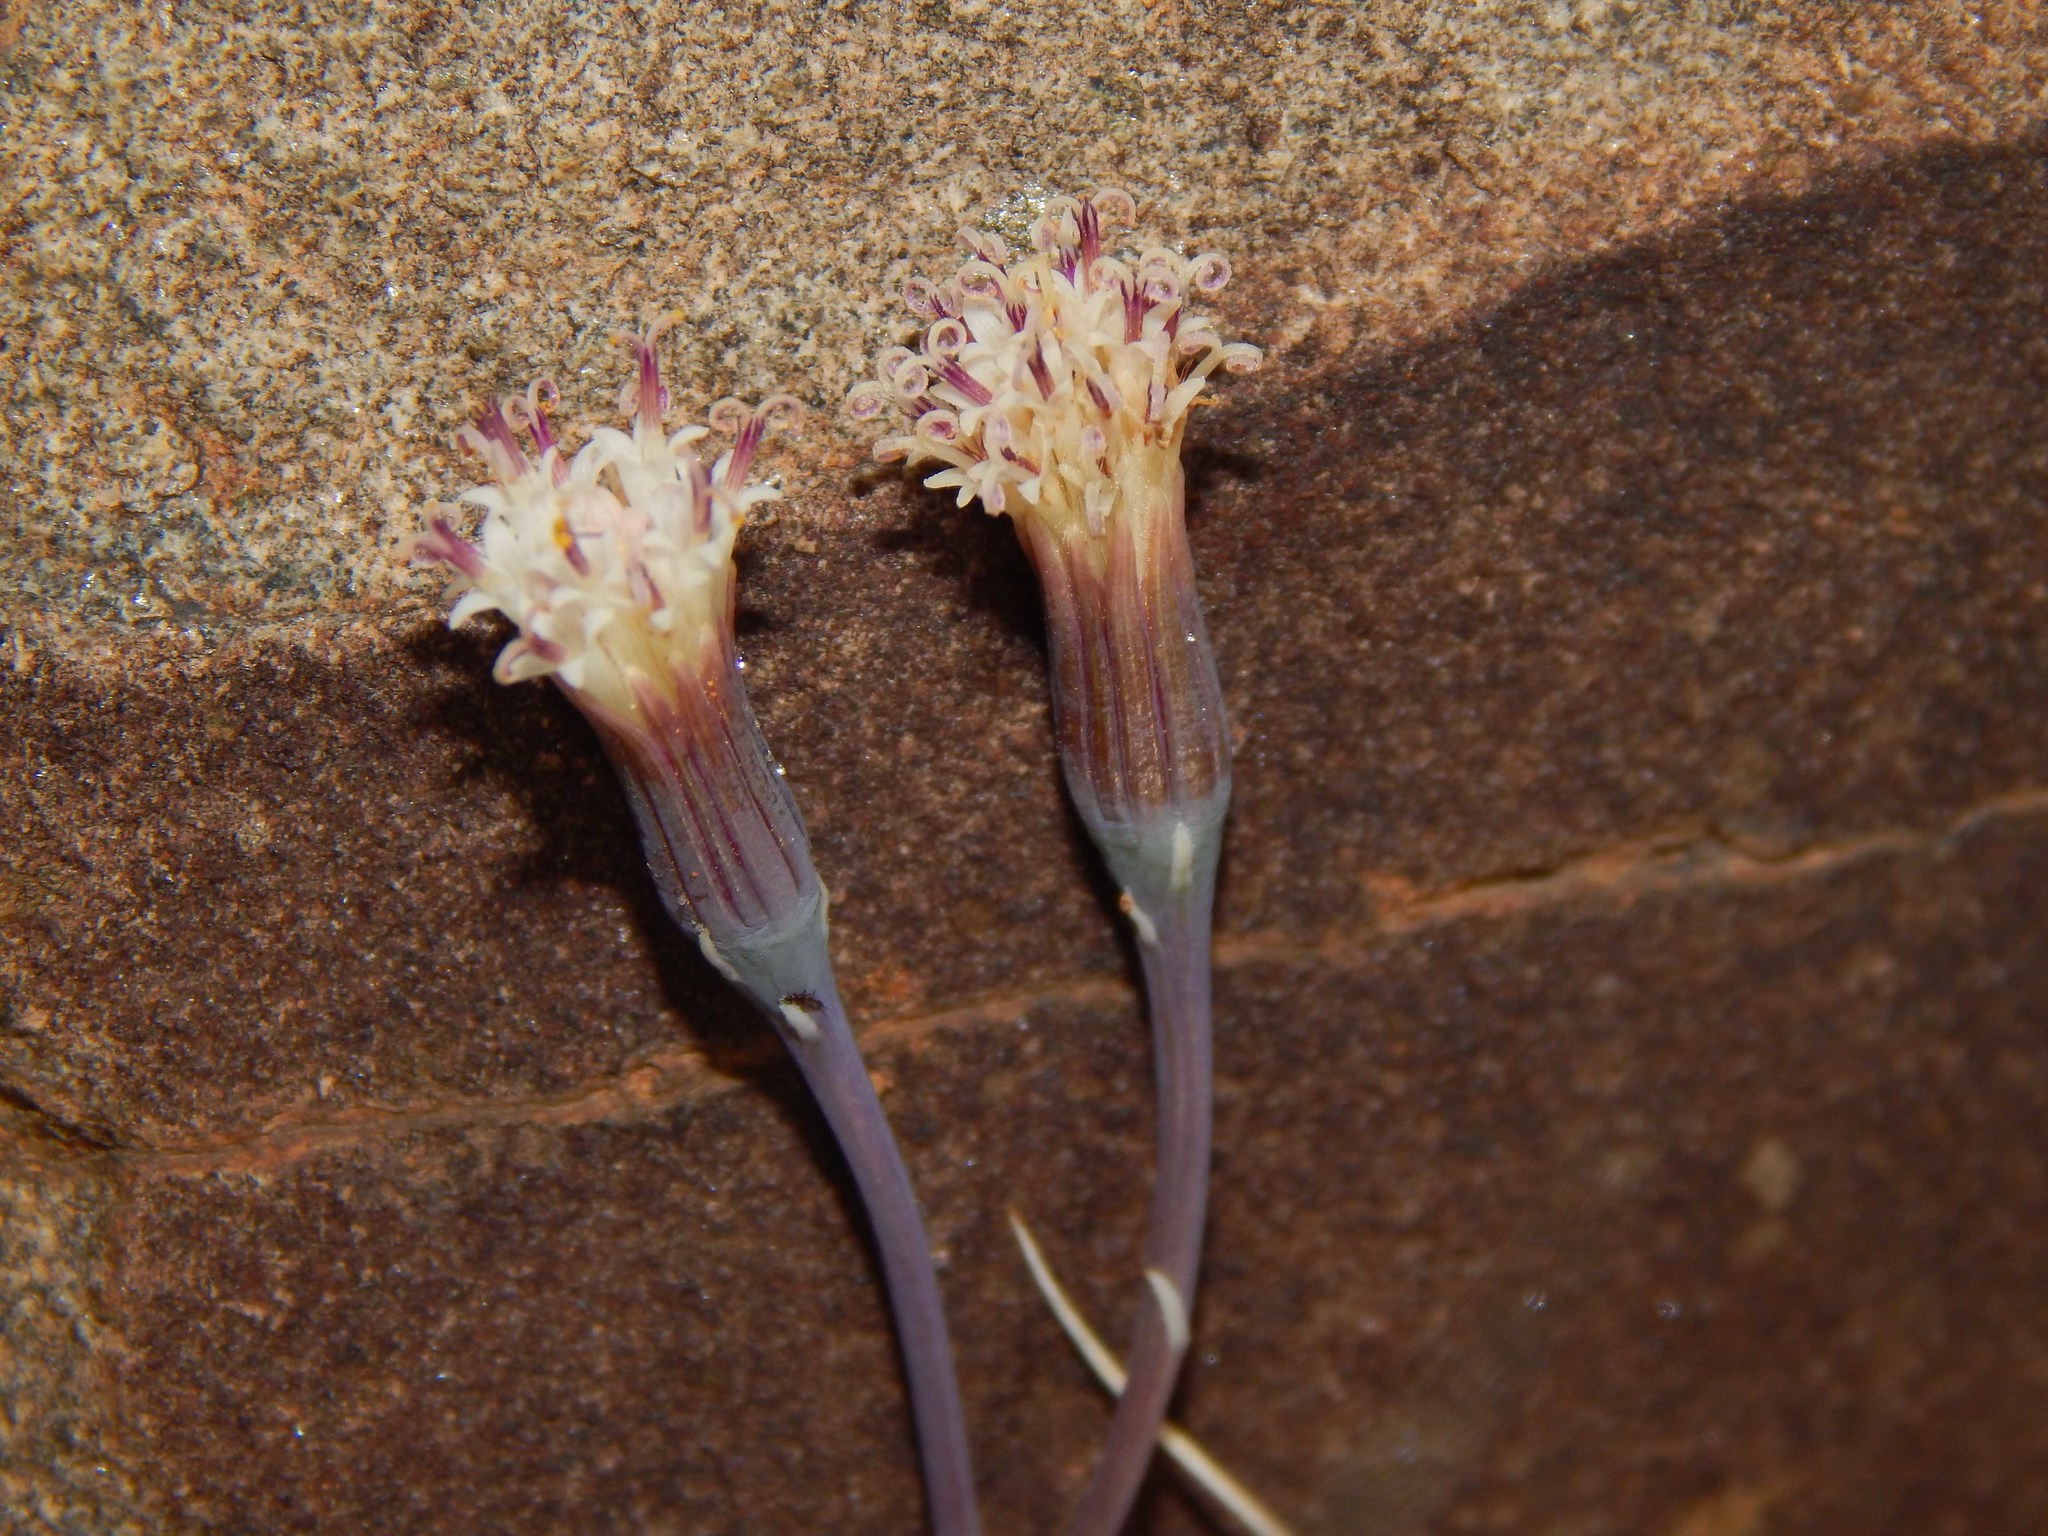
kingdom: Plantae
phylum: Tracheophyta
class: Magnoliopsida
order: Asterales
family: Asteraceae
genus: Curio
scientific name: Curio radicans
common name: Creeping-berry
